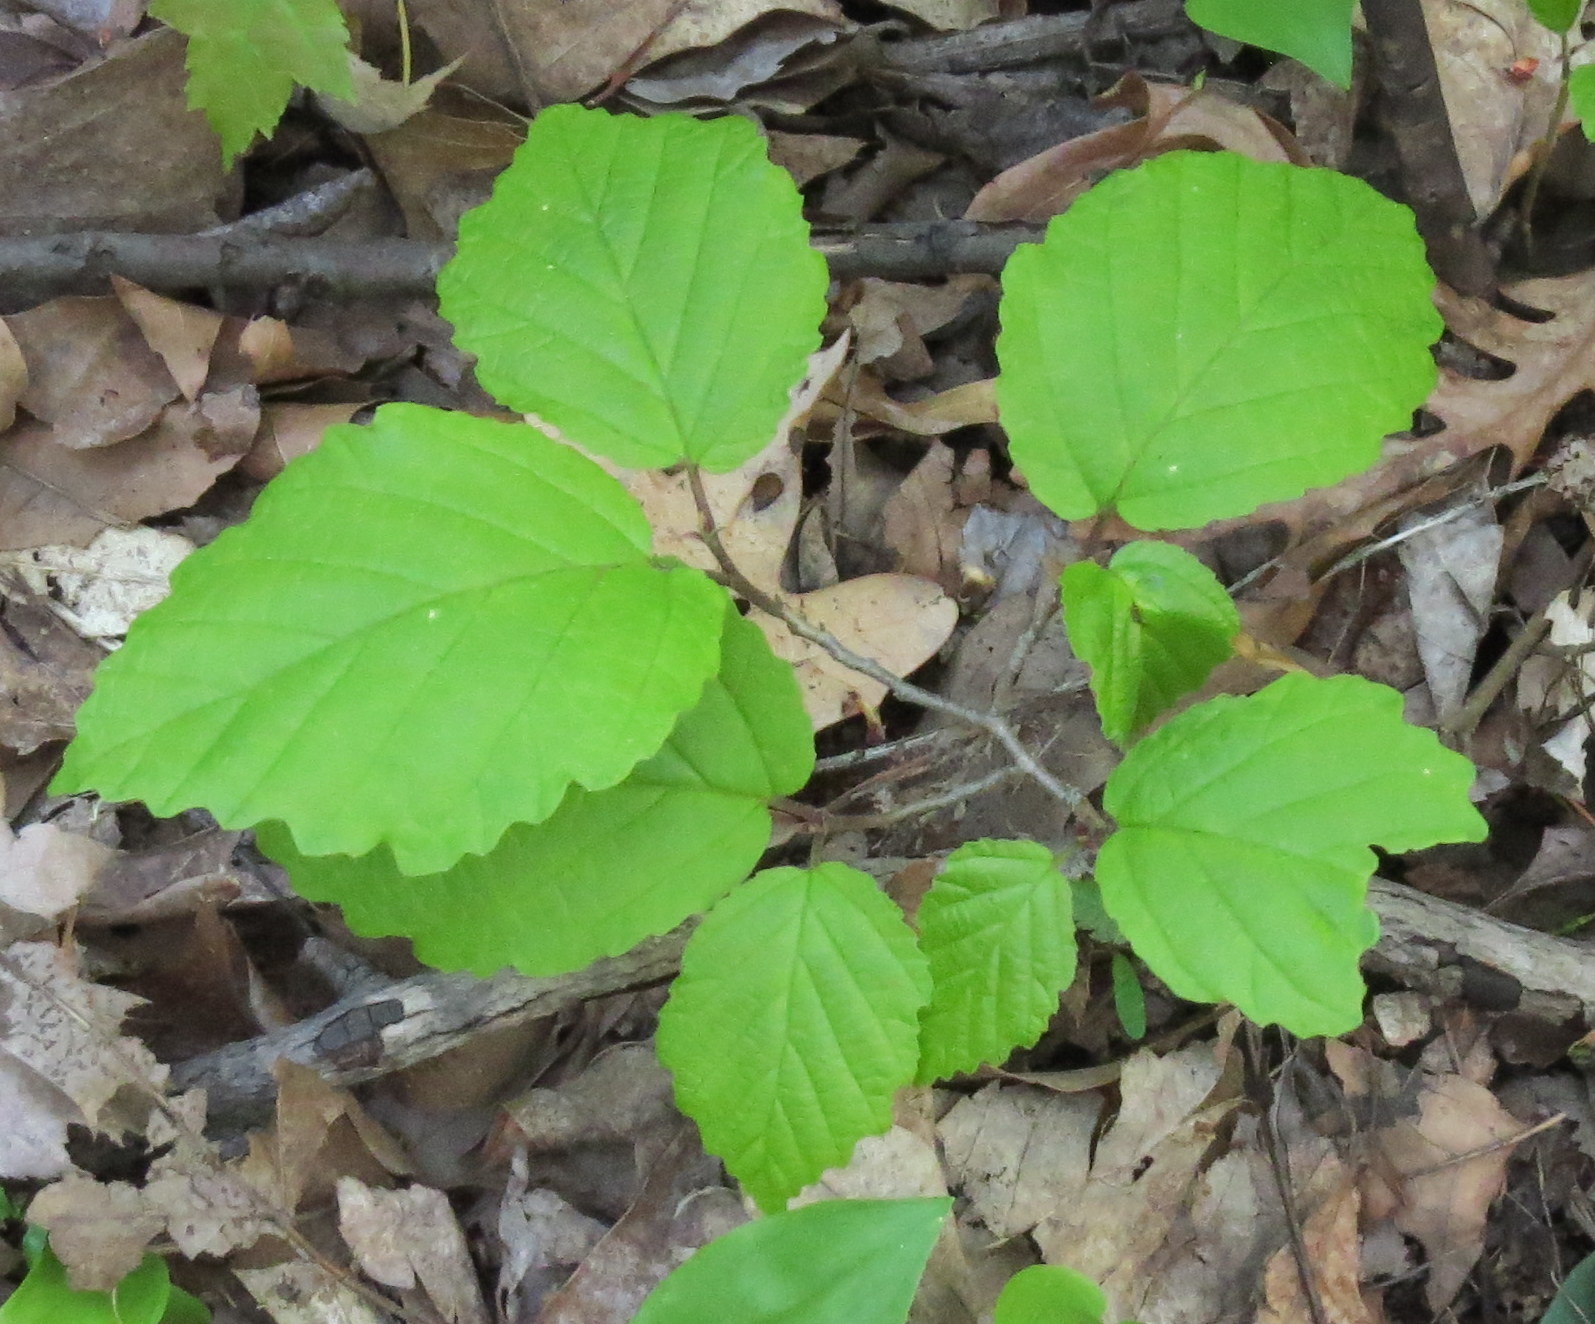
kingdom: Plantae
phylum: Tracheophyta
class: Magnoliopsida
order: Saxifragales
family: Hamamelidaceae
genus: Hamamelis
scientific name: Hamamelis virginiana
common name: Witch-hazel
